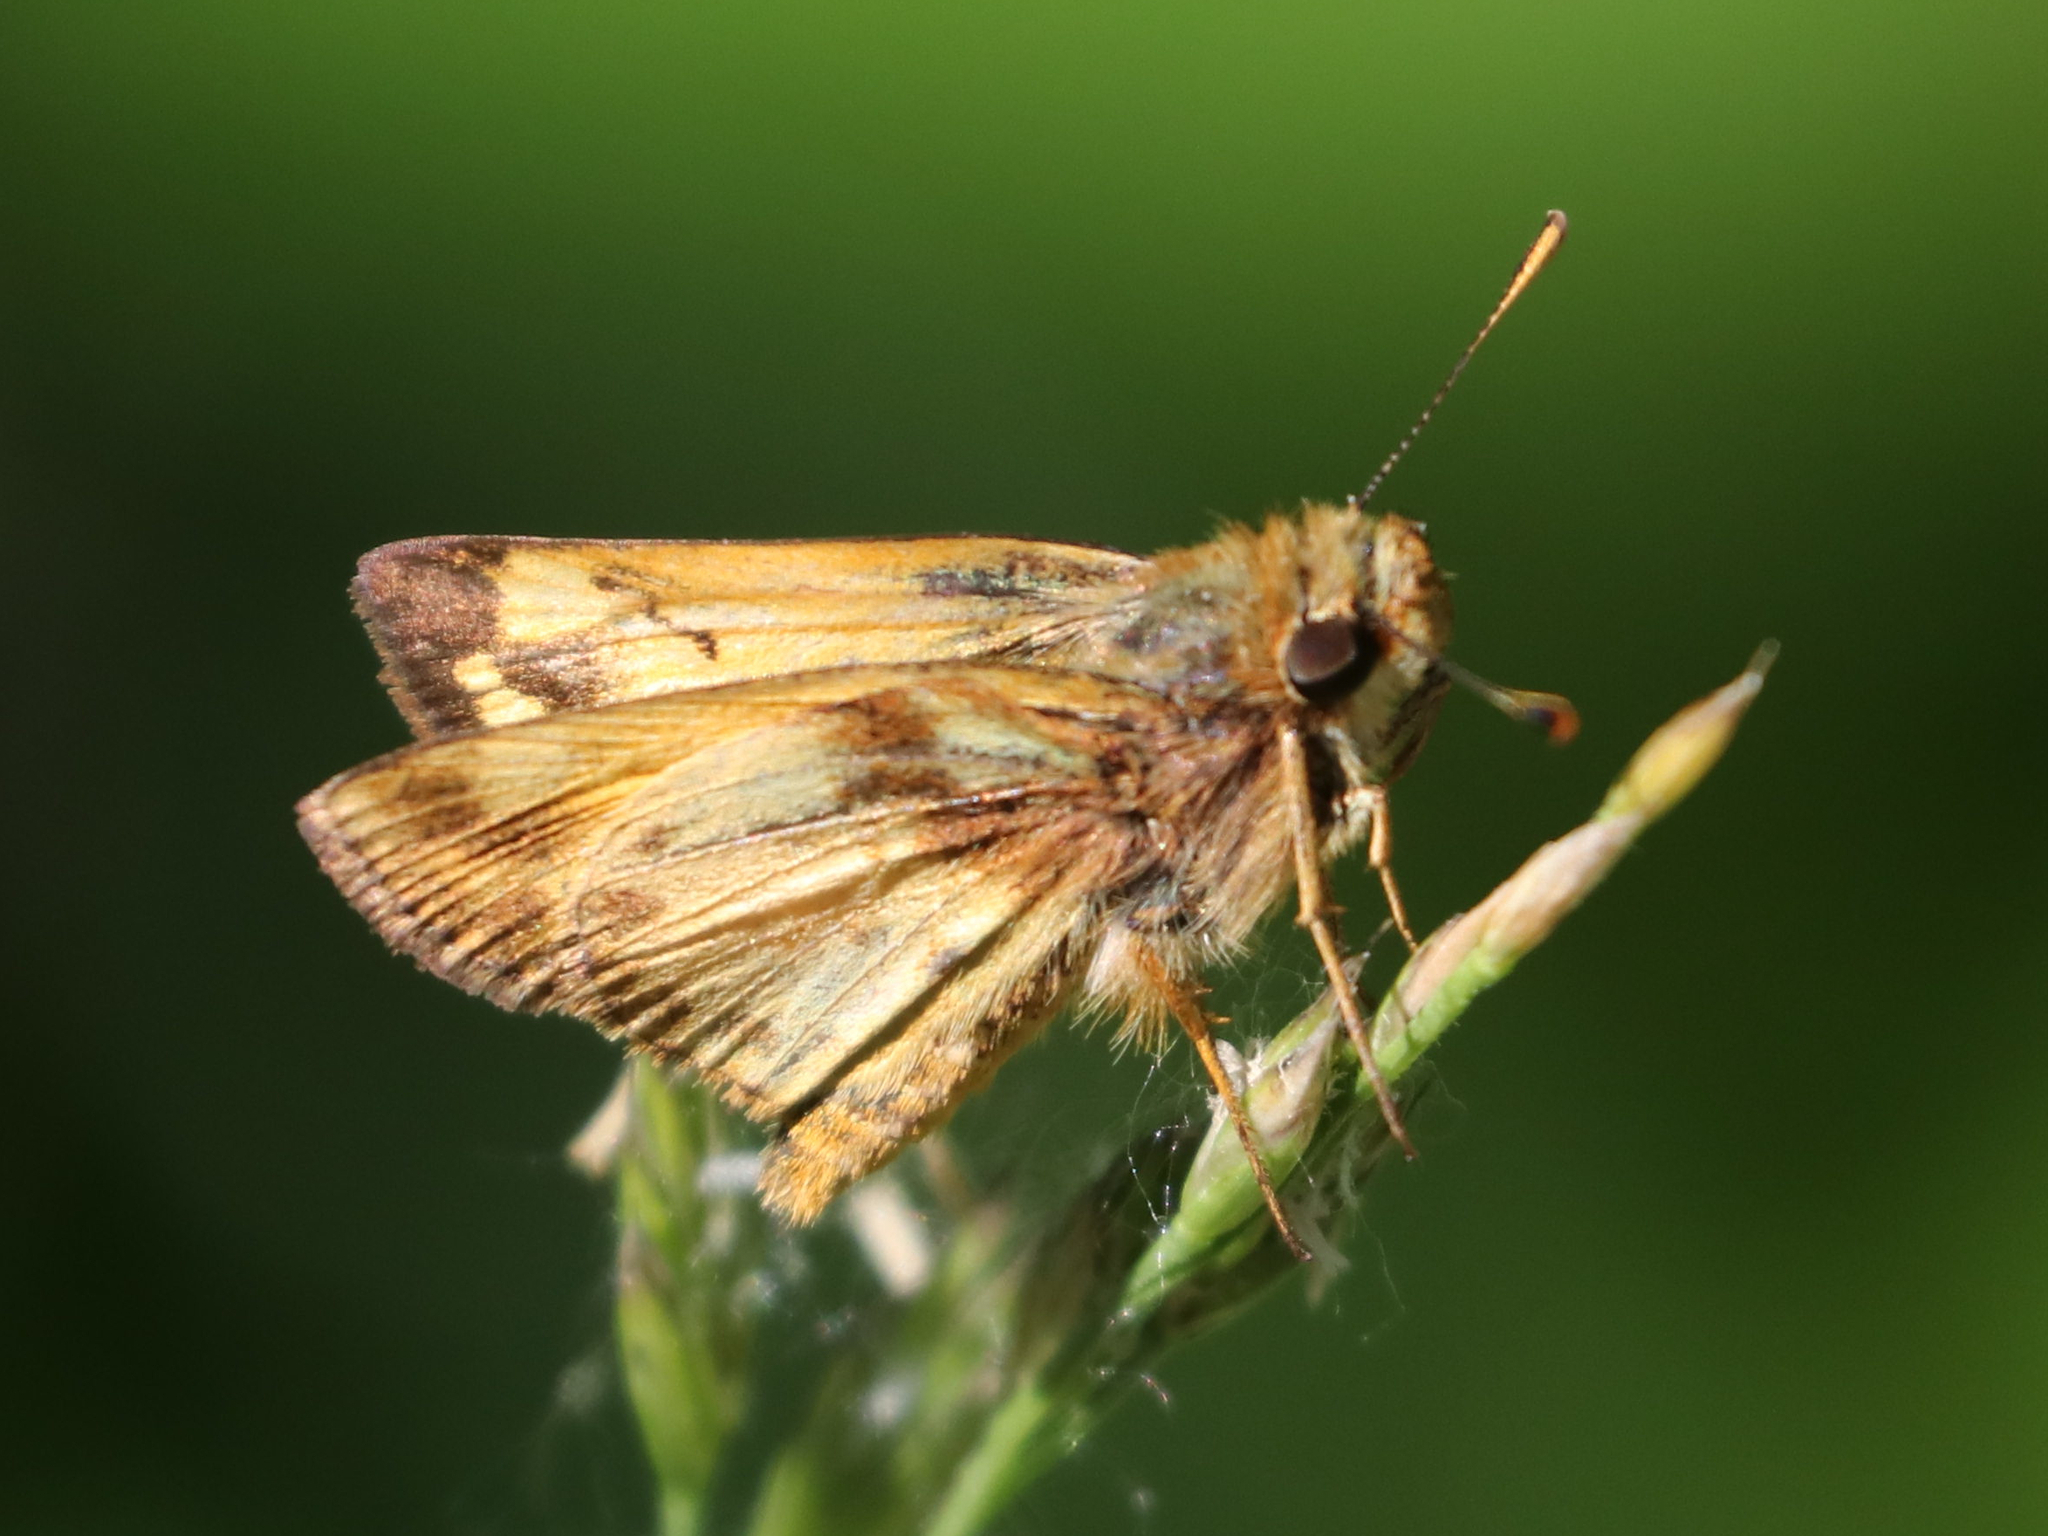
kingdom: Animalia
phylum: Arthropoda
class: Insecta
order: Lepidoptera
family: Hesperiidae
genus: Lon
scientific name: Lon zabulon
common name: Zabulon skipper
